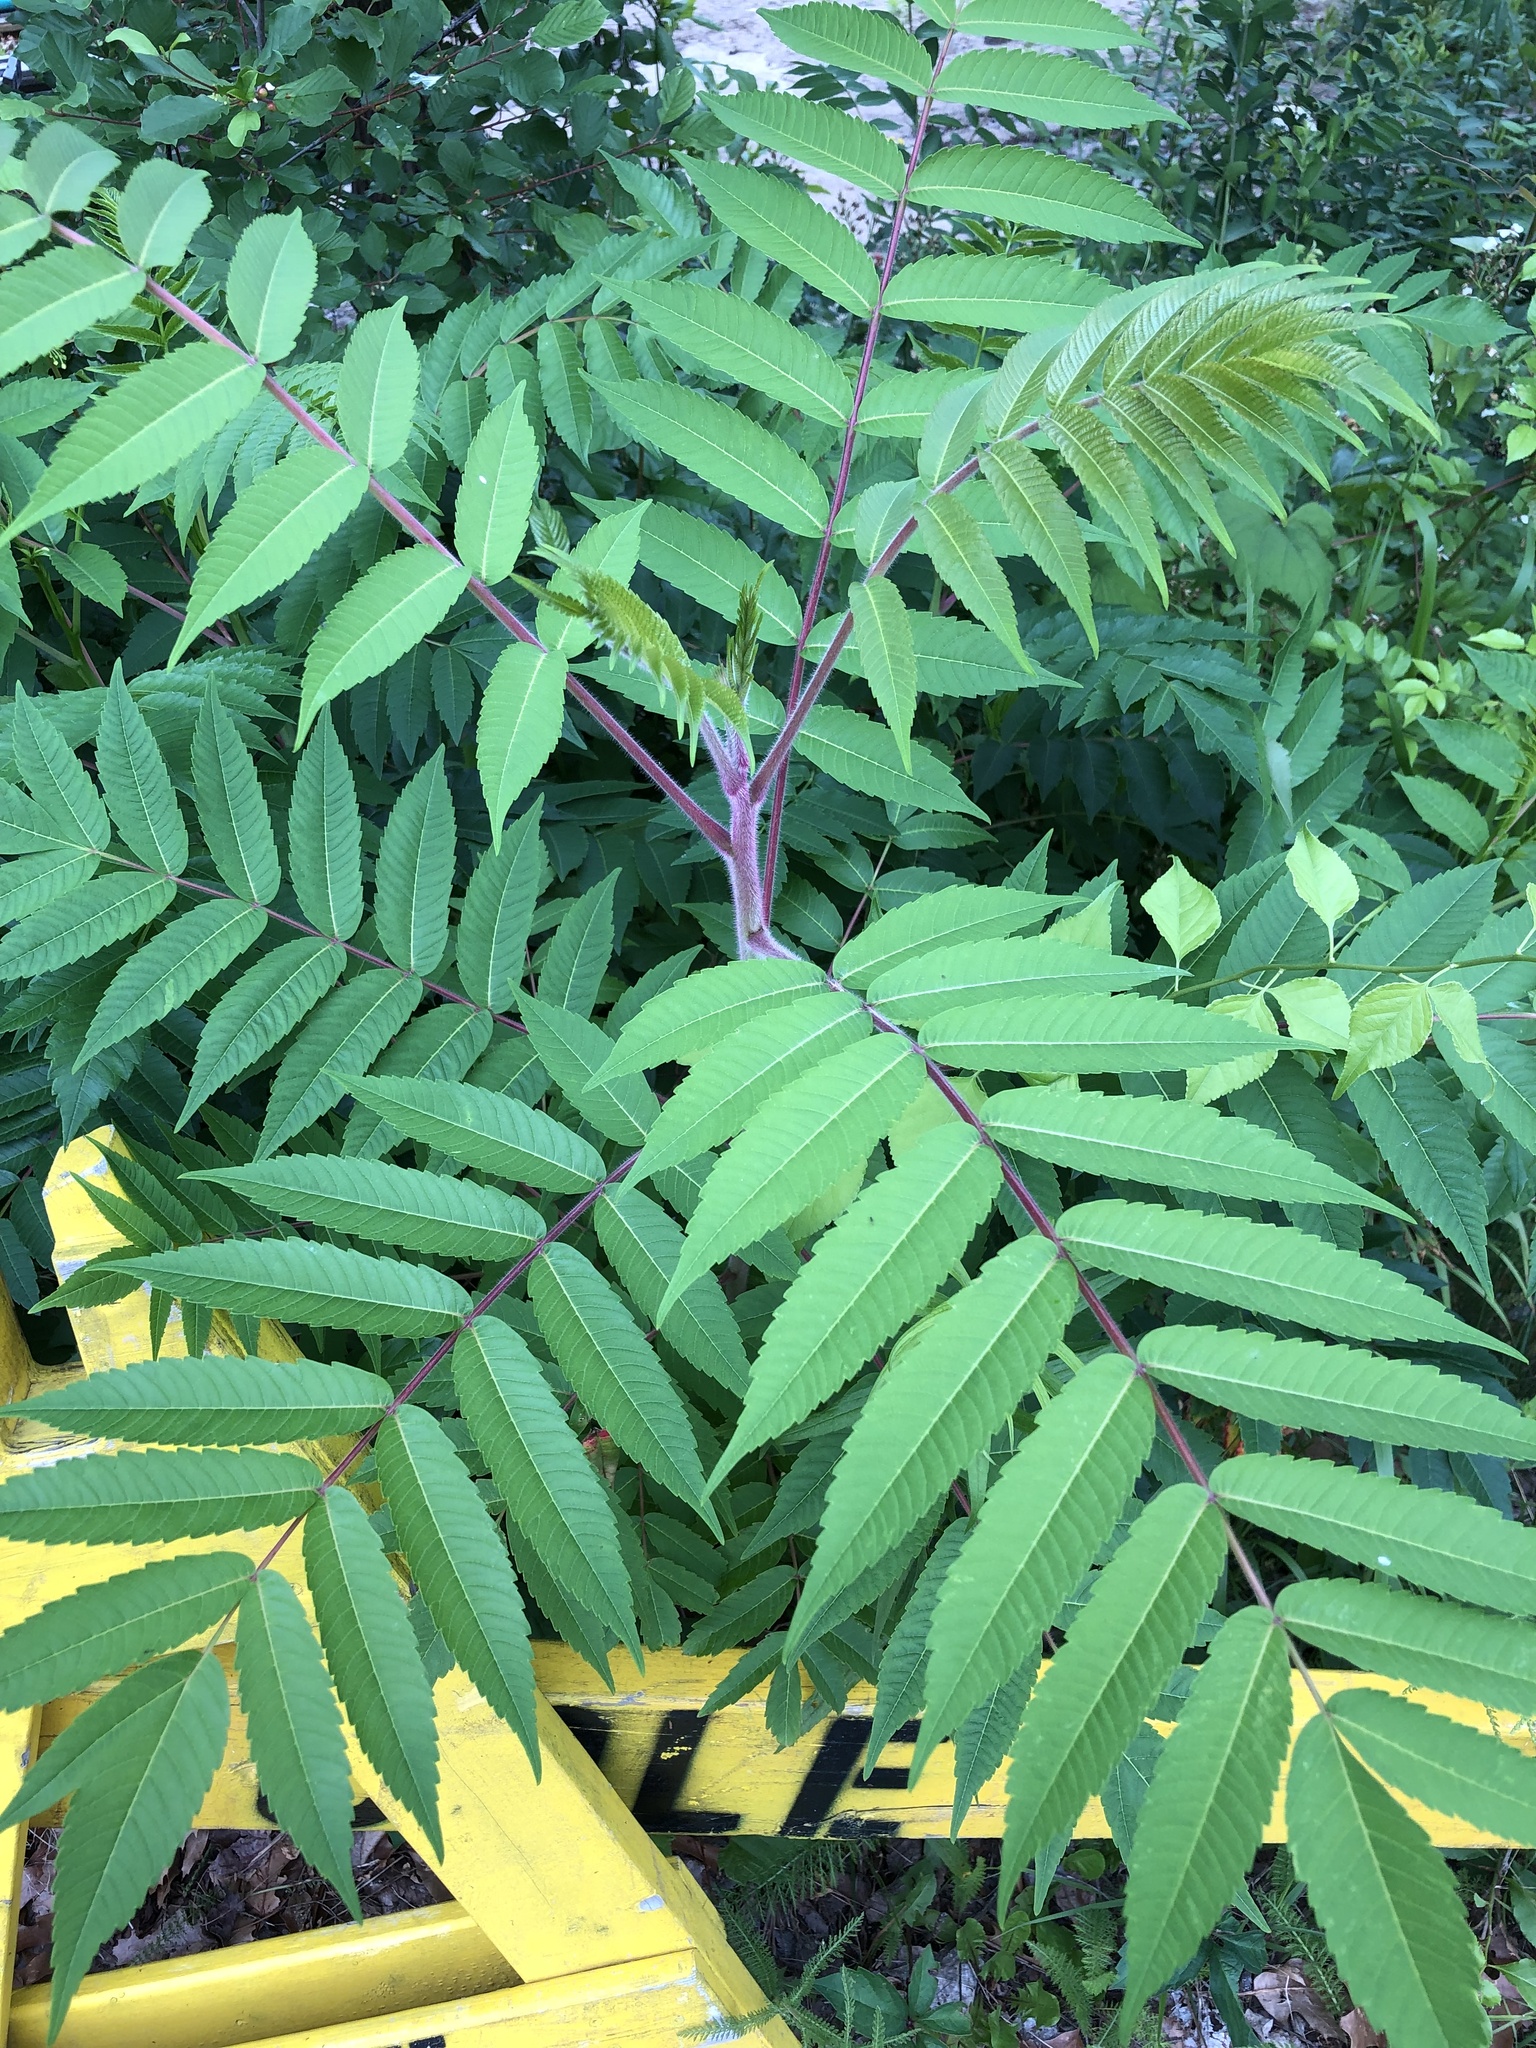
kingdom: Plantae
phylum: Tracheophyta
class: Magnoliopsida
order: Sapindales
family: Anacardiaceae
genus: Rhus
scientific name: Rhus typhina
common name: Staghorn sumac
